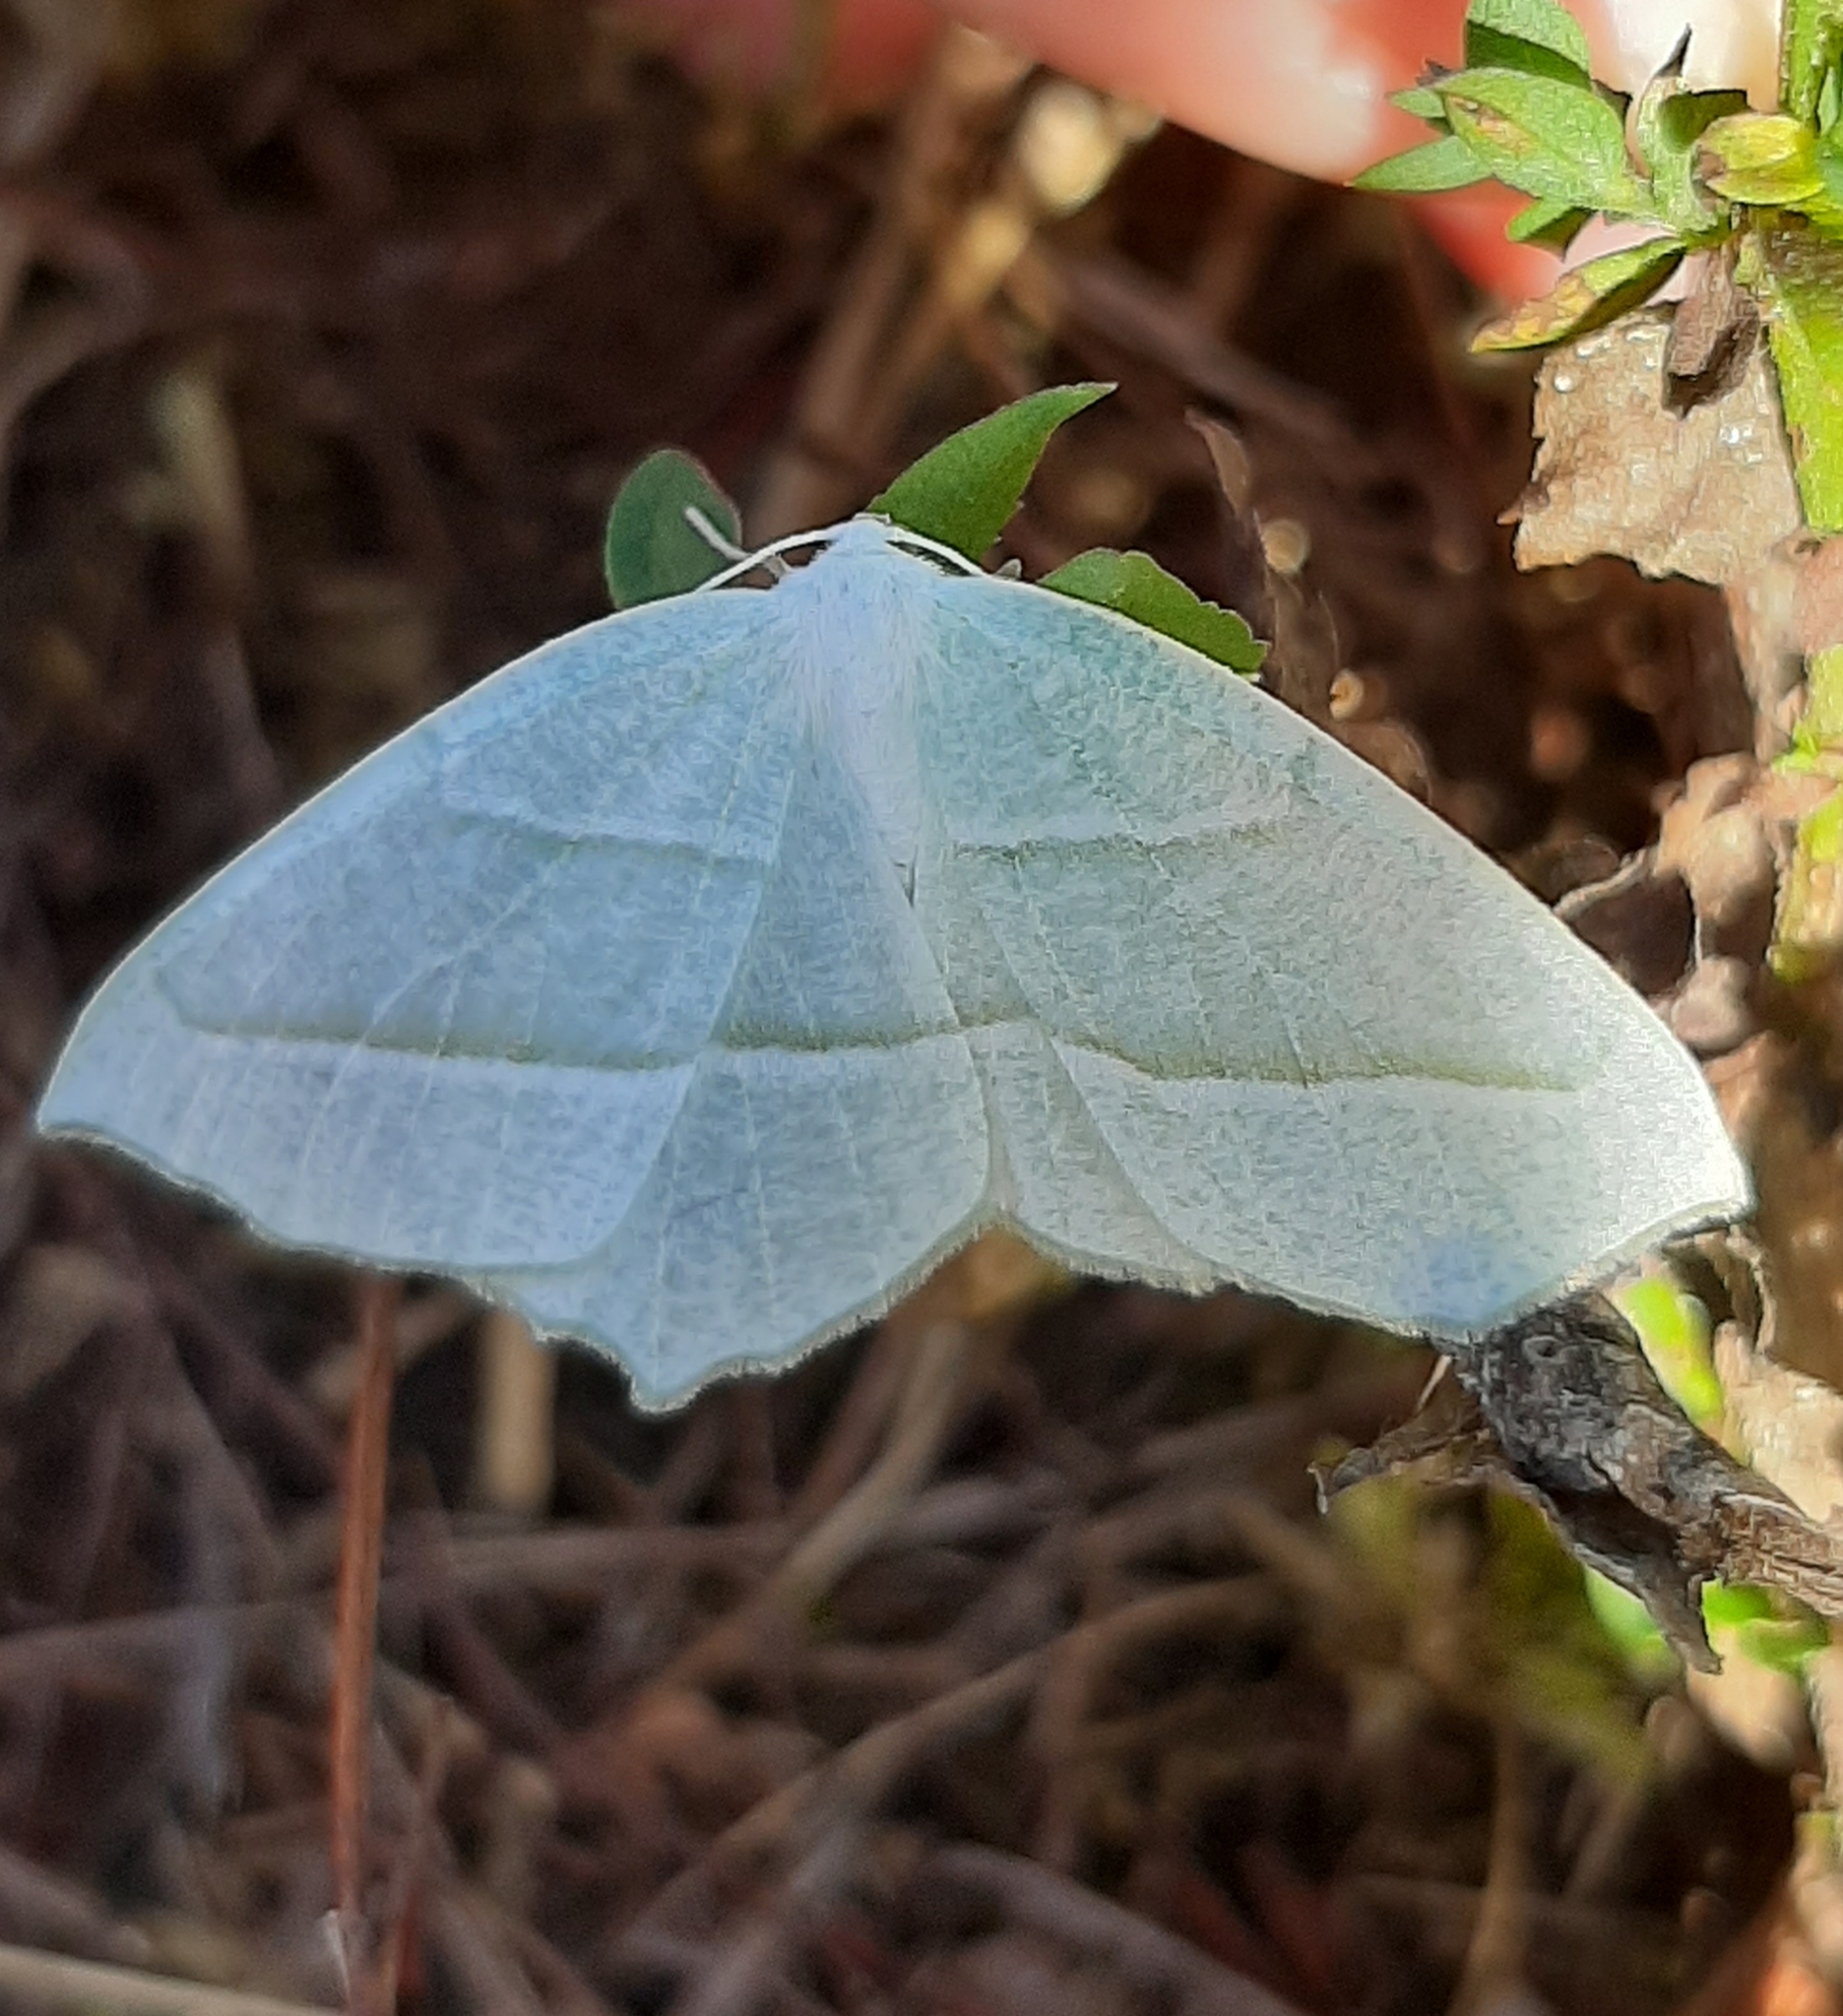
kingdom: Animalia
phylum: Arthropoda
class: Insecta
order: Lepidoptera
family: Geometridae
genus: Campaea
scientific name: Campaea perlata
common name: Fringed looper
